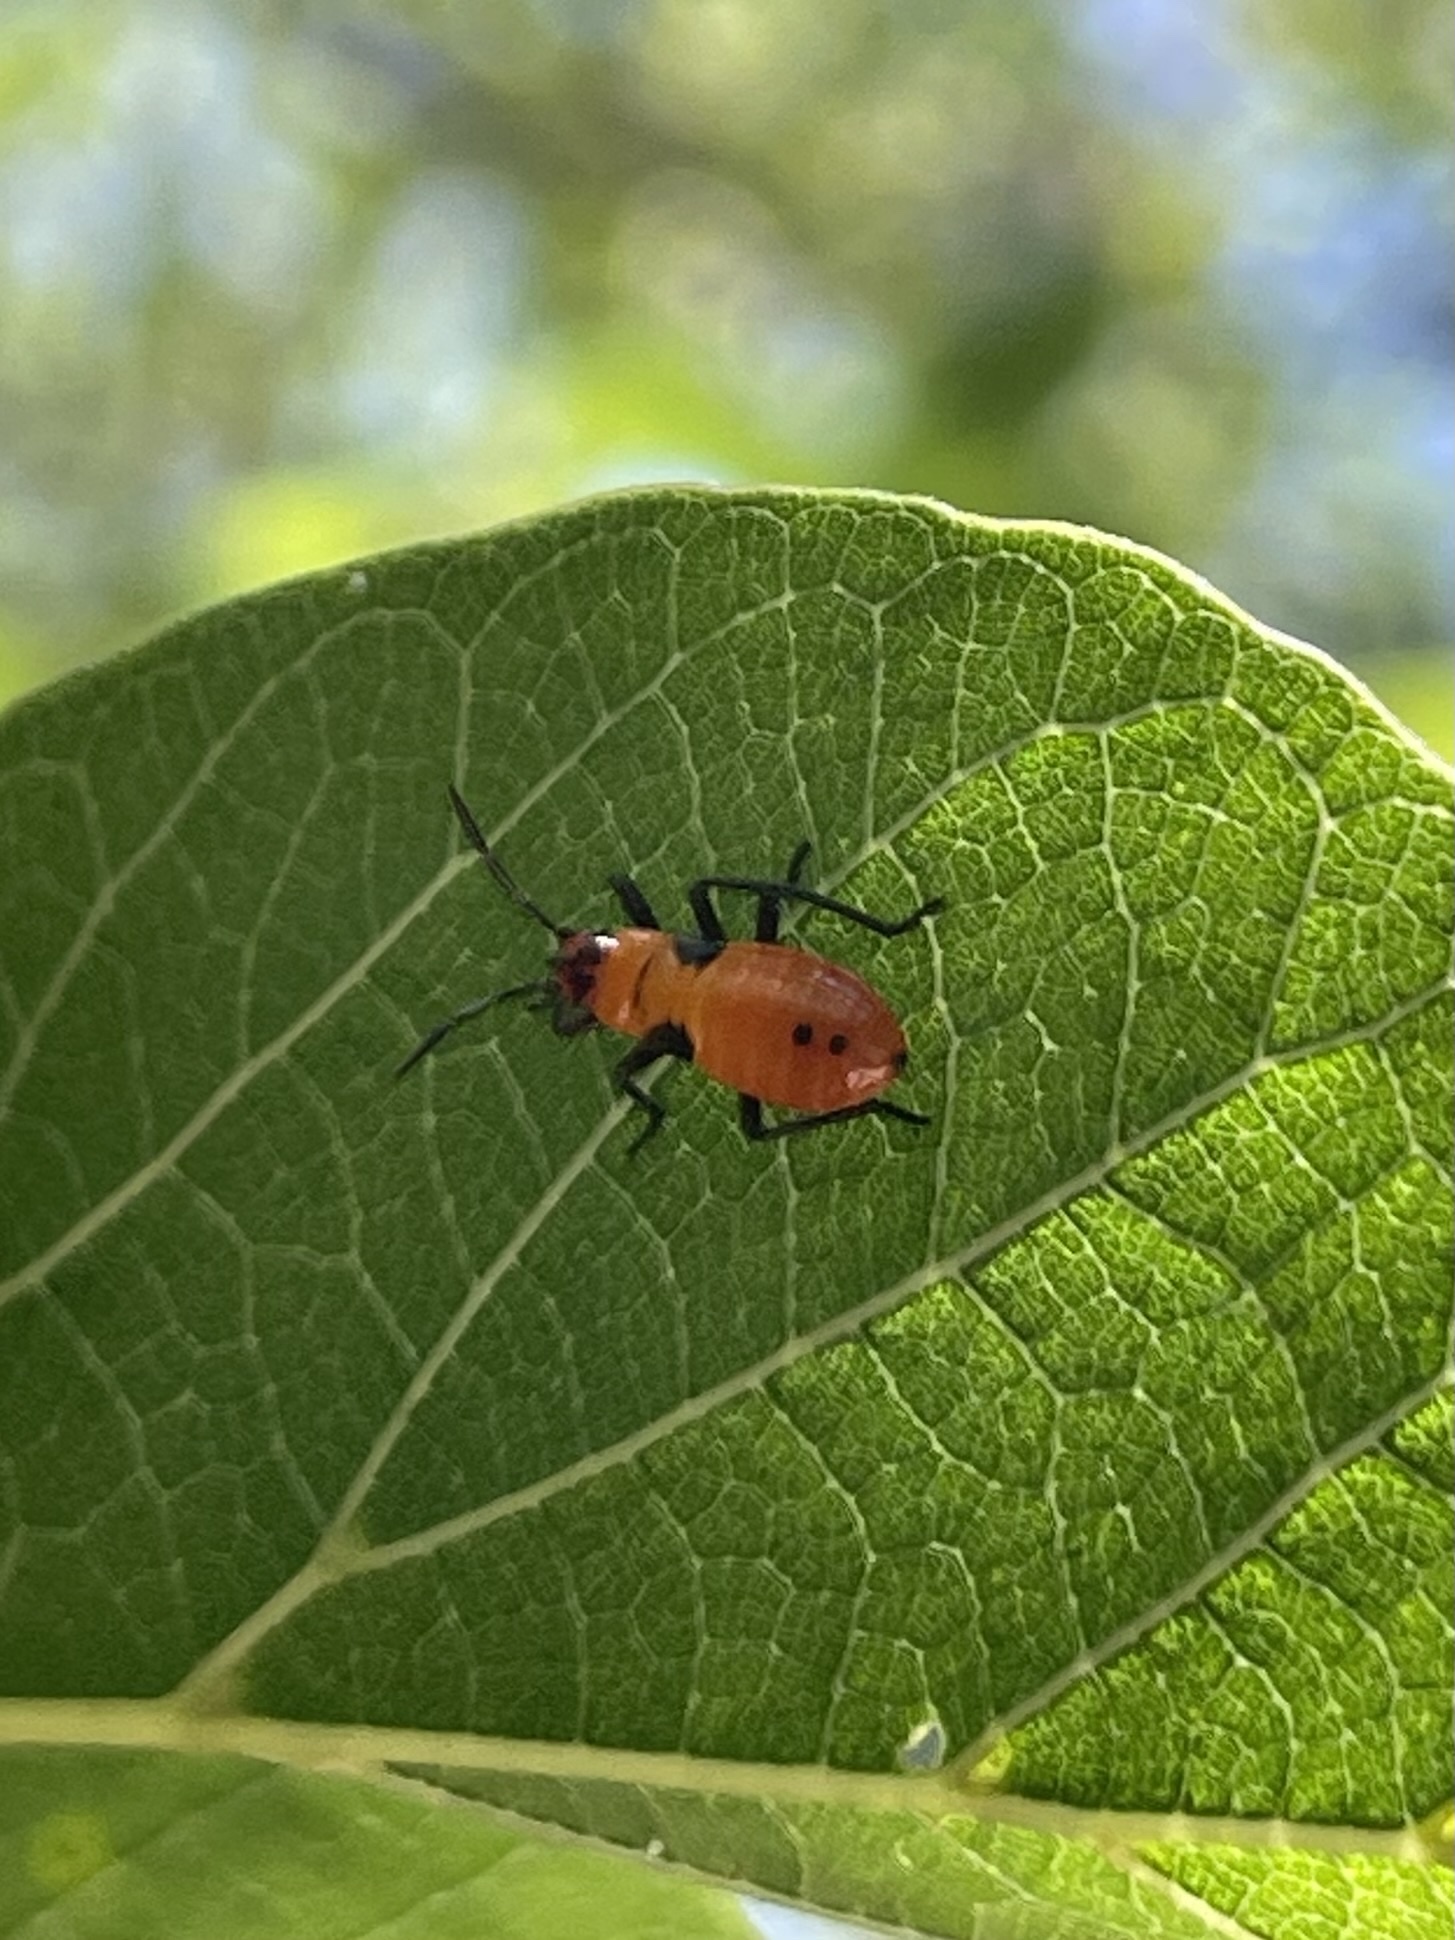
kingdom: Animalia
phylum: Arthropoda
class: Insecta
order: Hemiptera
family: Lygaeidae
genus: Oncopeltus
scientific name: Oncopeltus fasciatus
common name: Large milkweed bug
